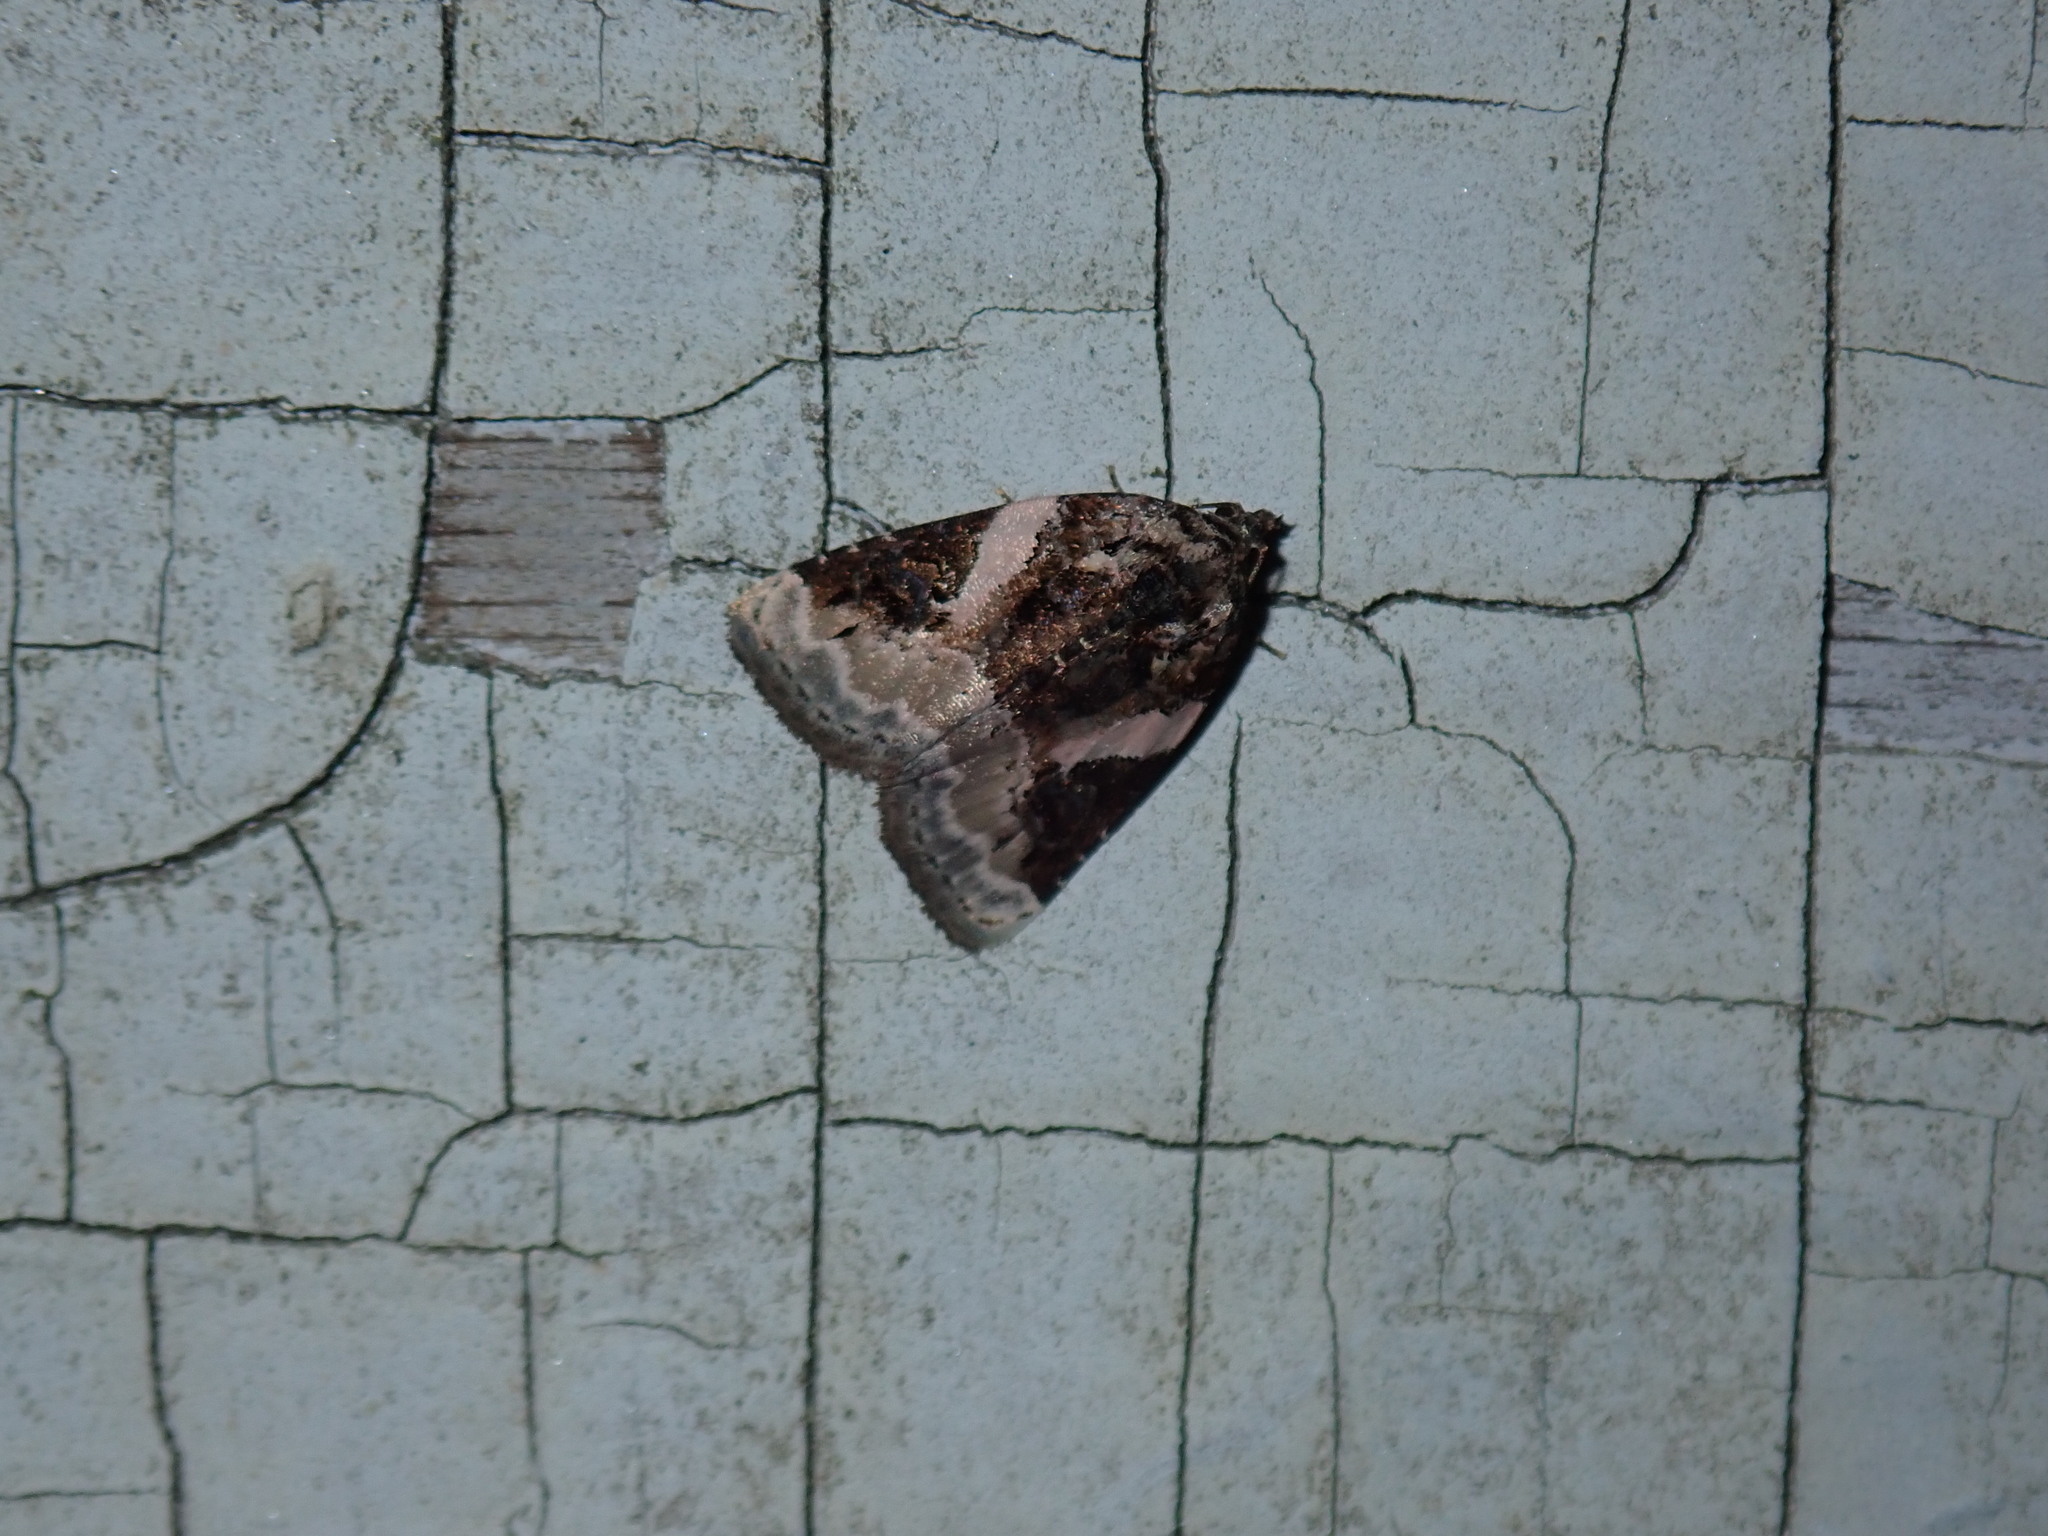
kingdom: Animalia
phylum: Arthropoda
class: Insecta
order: Lepidoptera
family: Noctuidae
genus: Pseudeustrotia
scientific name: Pseudeustrotia carneola
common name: Pink-barred lithacodia moth
